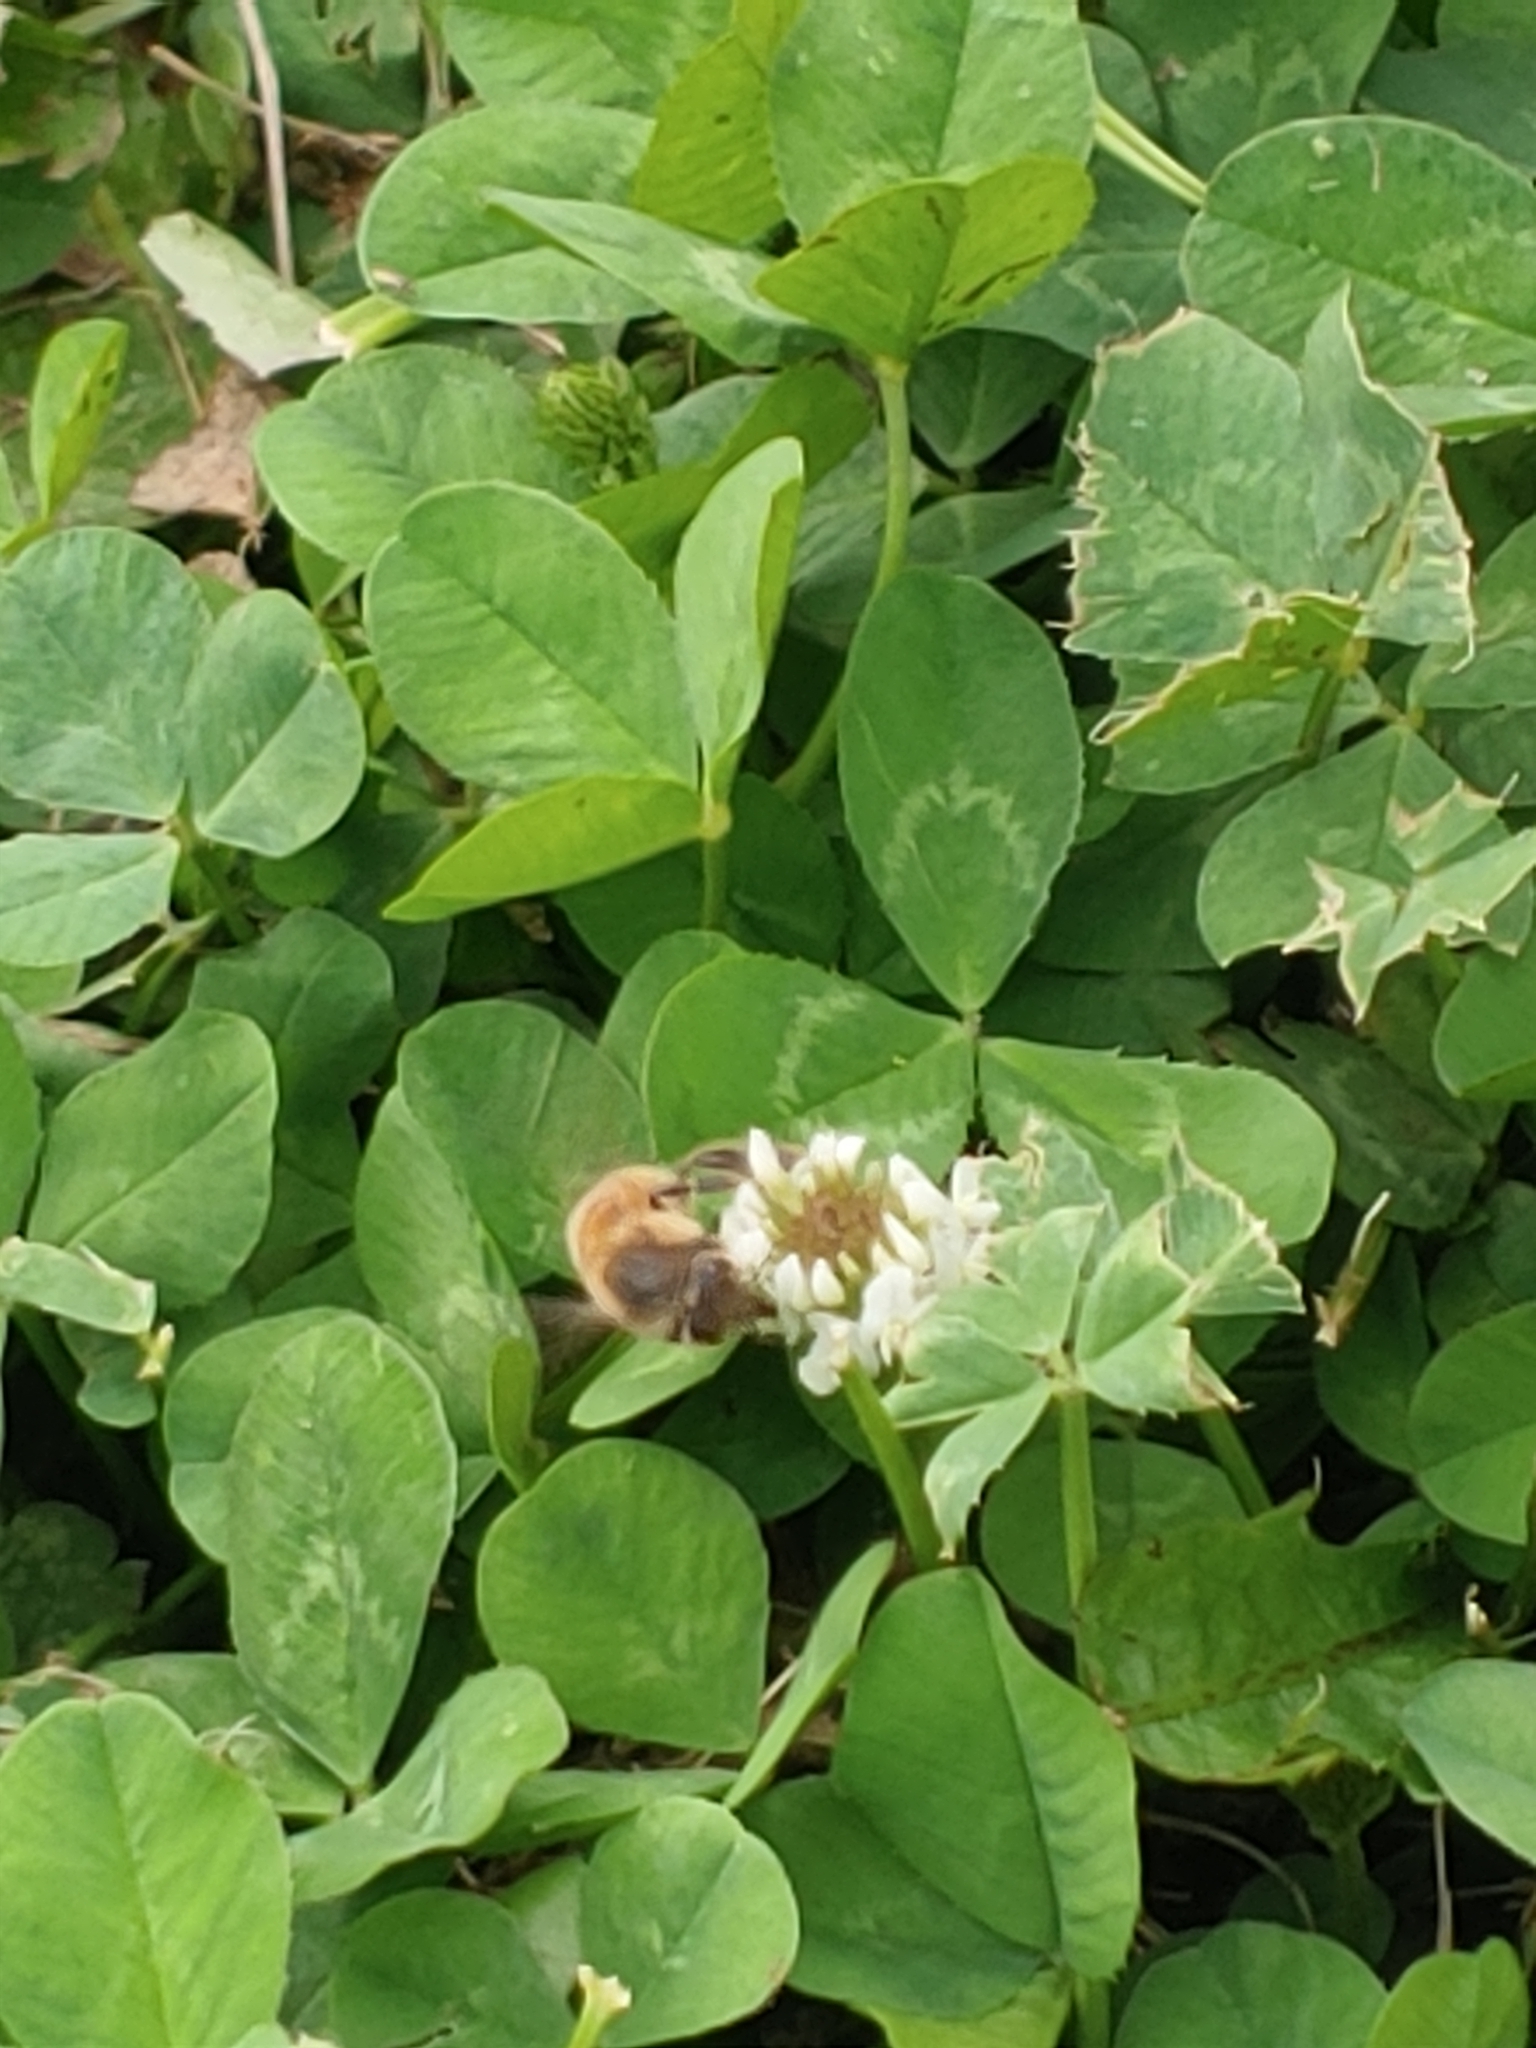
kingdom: Animalia
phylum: Arthropoda
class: Insecta
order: Hymenoptera
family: Apidae
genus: Apis
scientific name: Apis mellifera
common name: Honey bee
